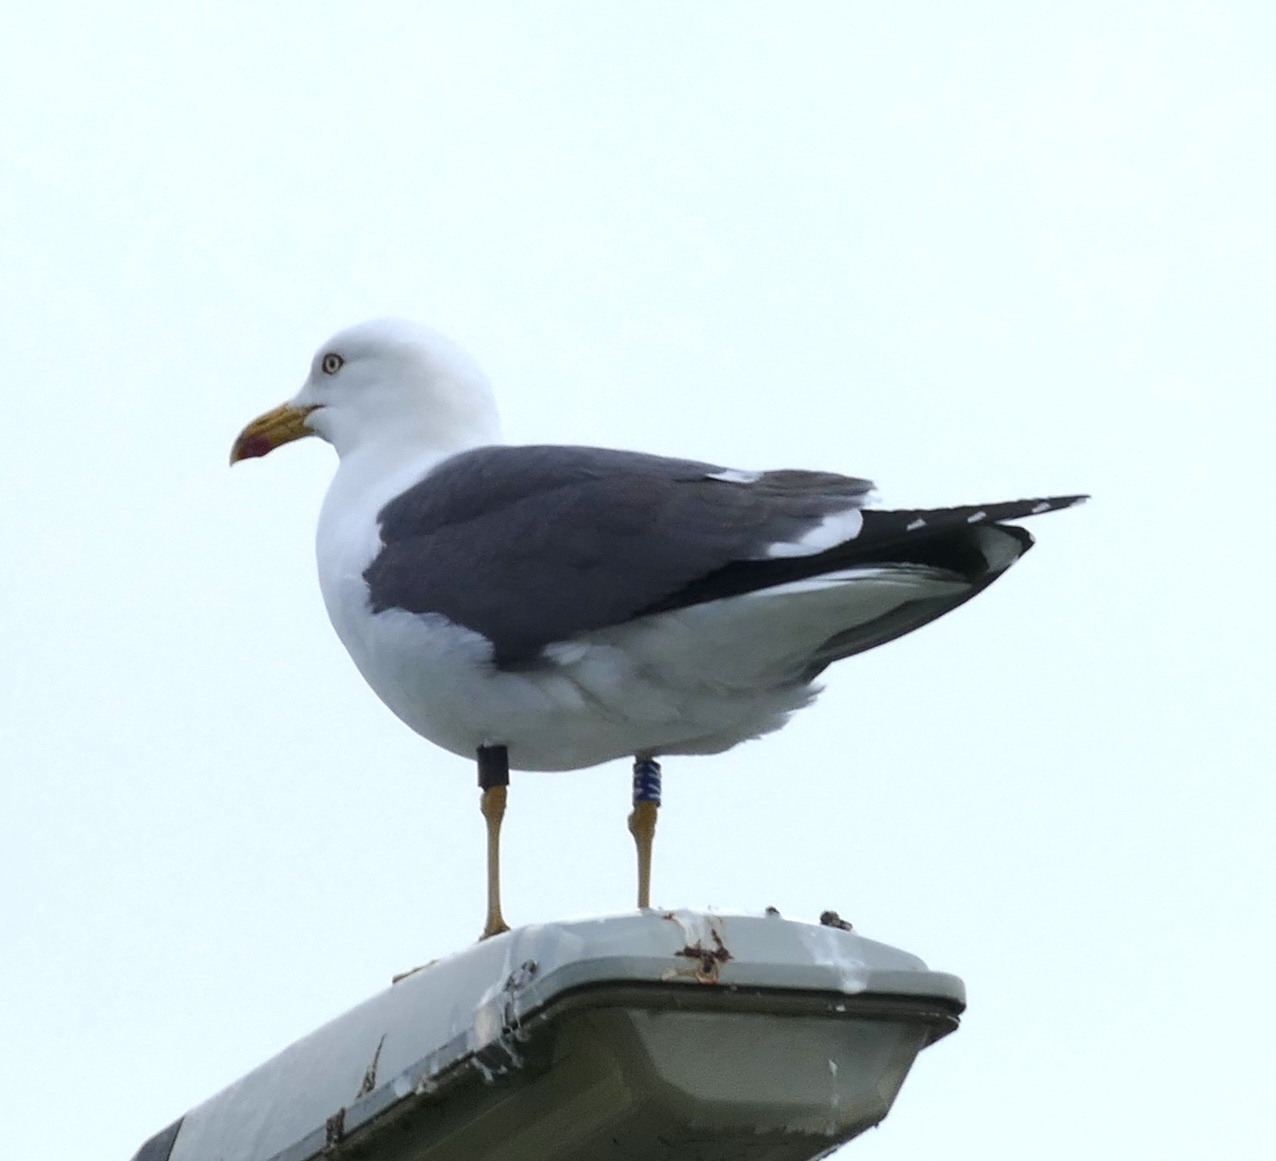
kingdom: Animalia
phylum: Chordata
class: Aves
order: Charadriiformes
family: Laridae
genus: Larus
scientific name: Larus fuscus
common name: Lesser black-backed gull
